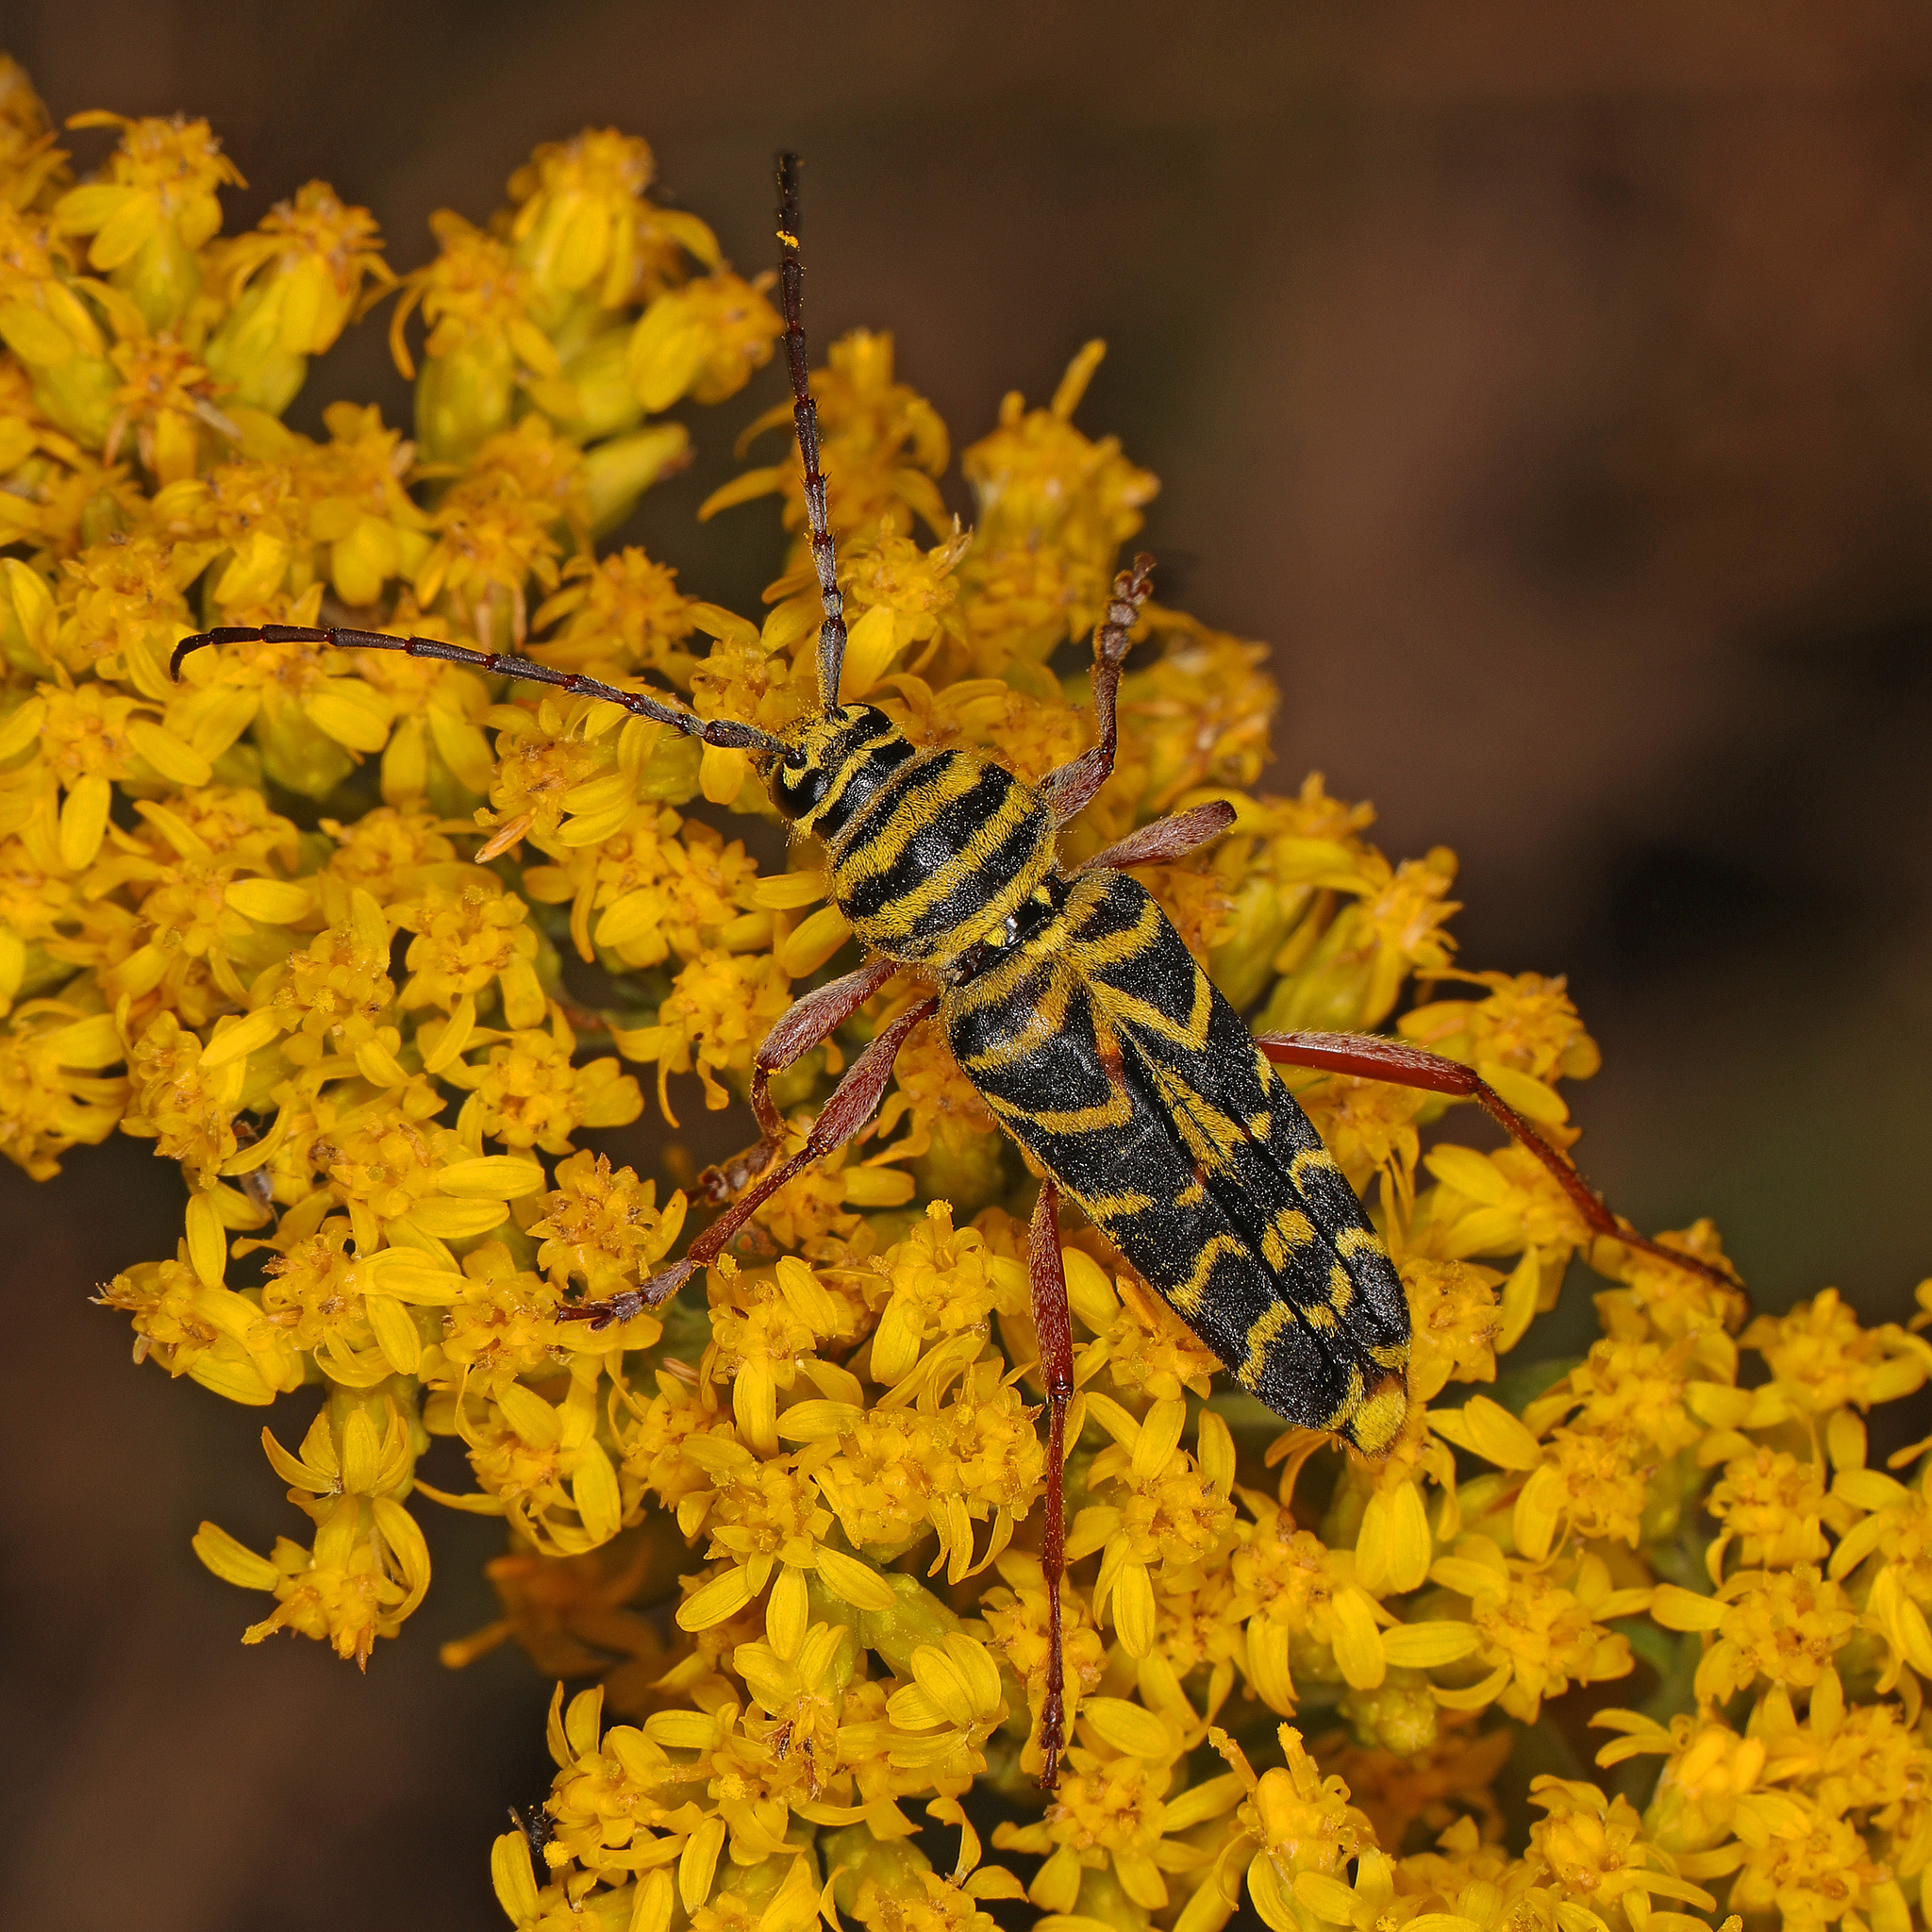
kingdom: Animalia
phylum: Arthropoda
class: Insecta
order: Coleoptera
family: Cerambycidae
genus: Megacyllene
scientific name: Megacyllene robiniae
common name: Locust borer
